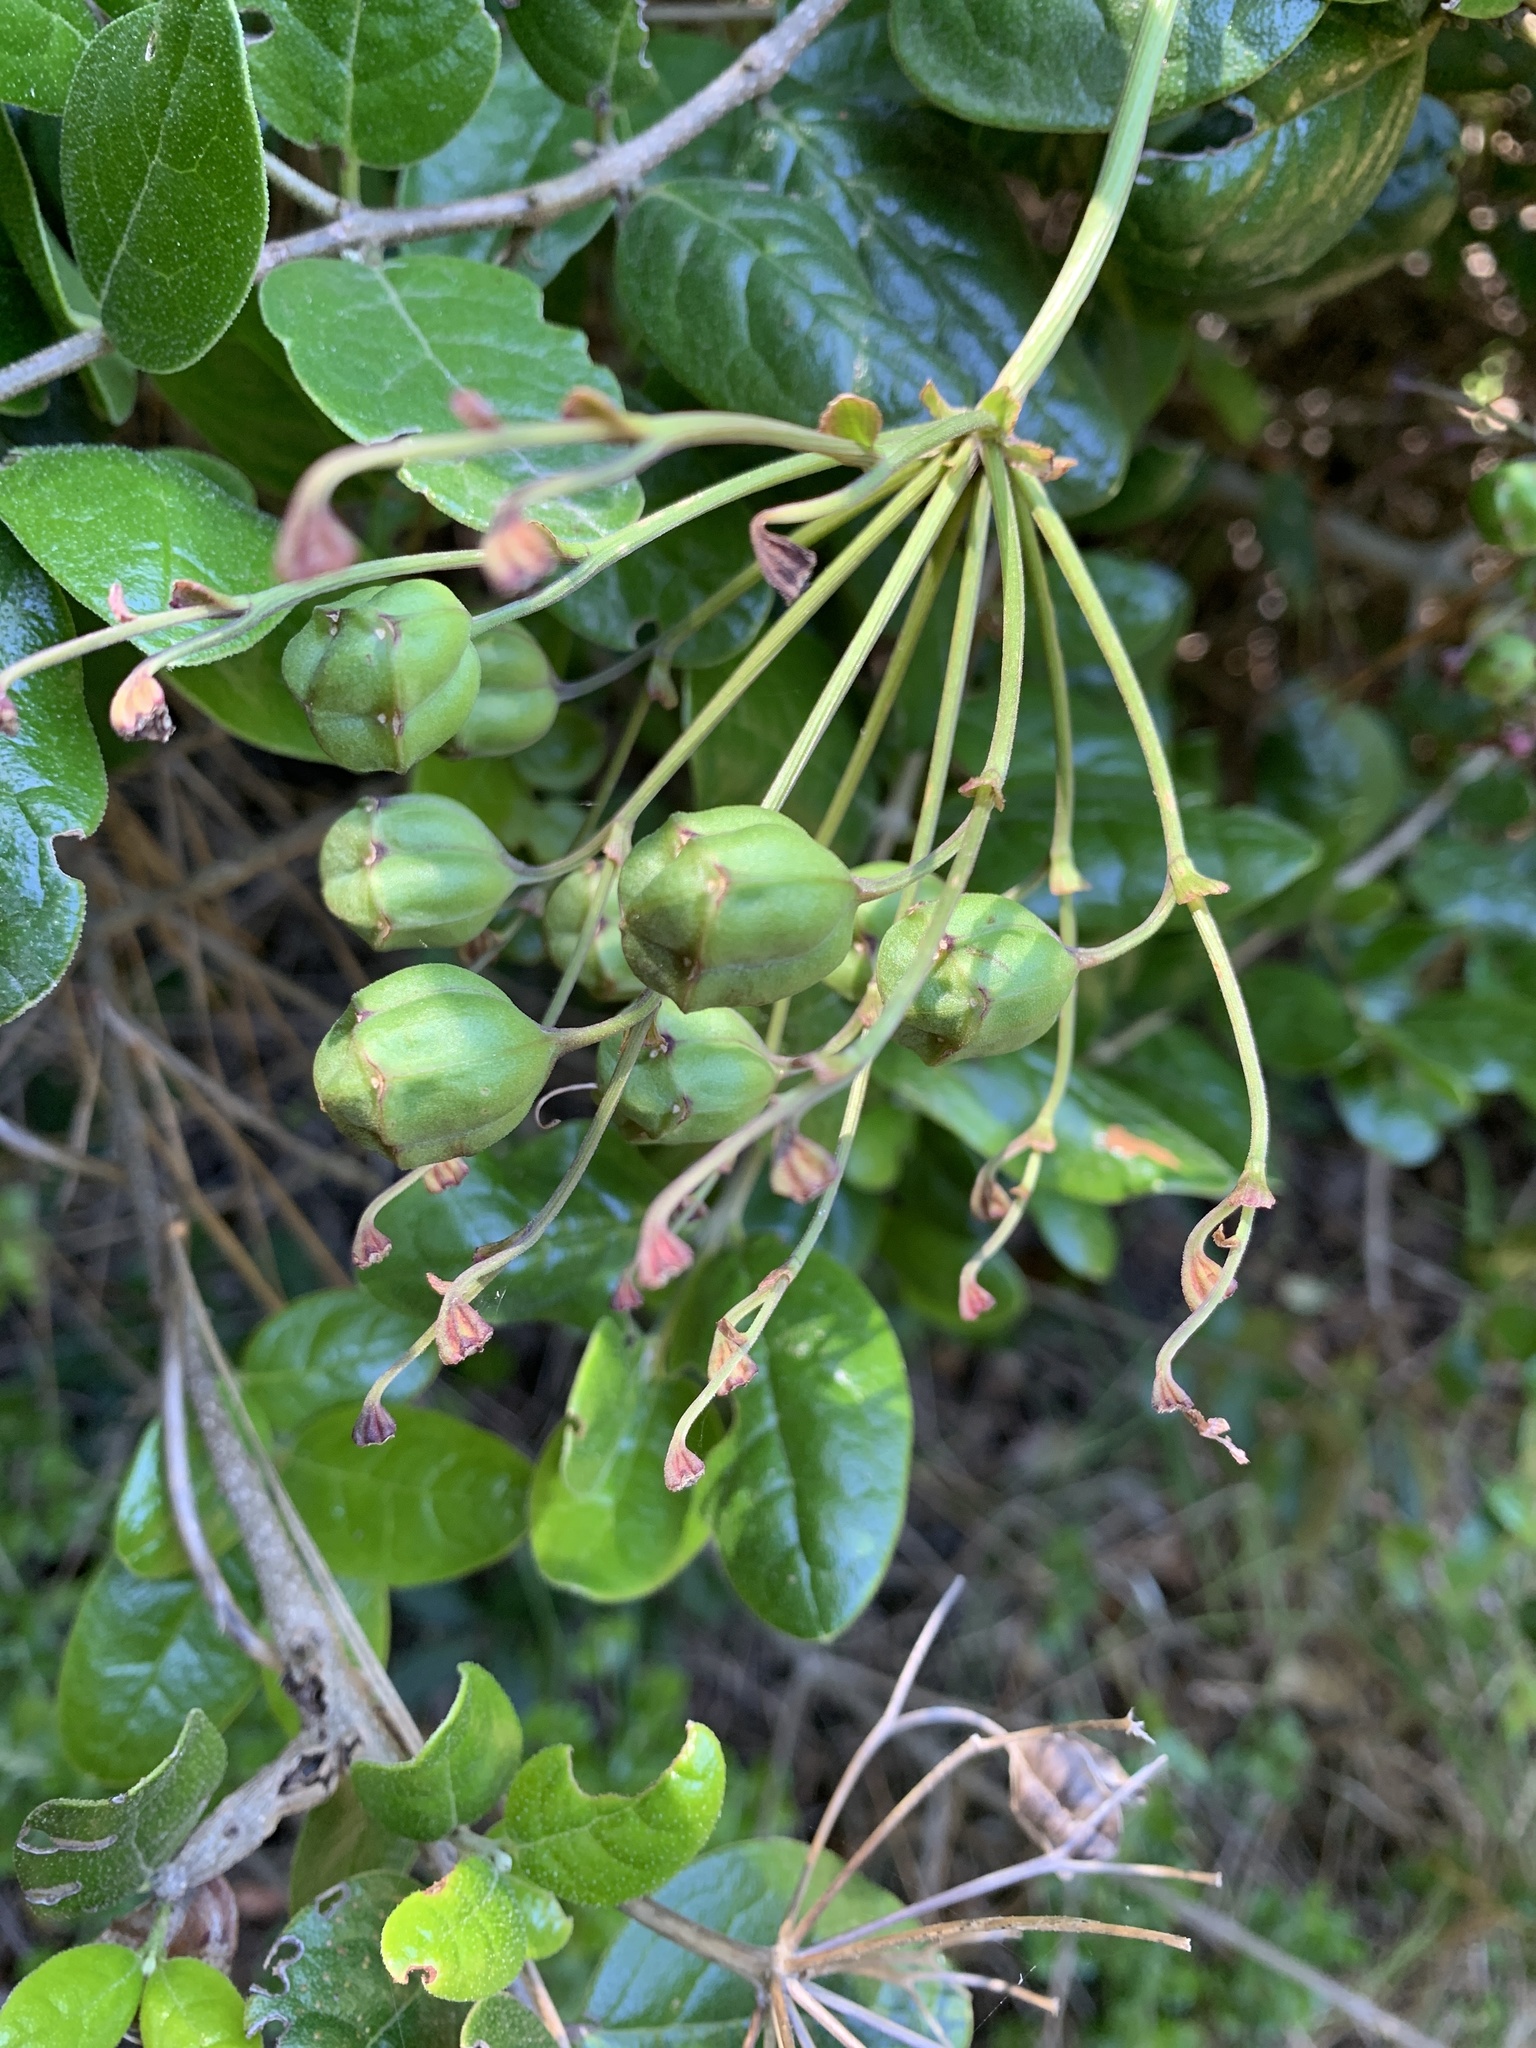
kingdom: Plantae
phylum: Tracheophyta
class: Liliopsida
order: Liliales
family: Alstroemeriaceae
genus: Bomarea
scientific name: Bomarea salsilla
